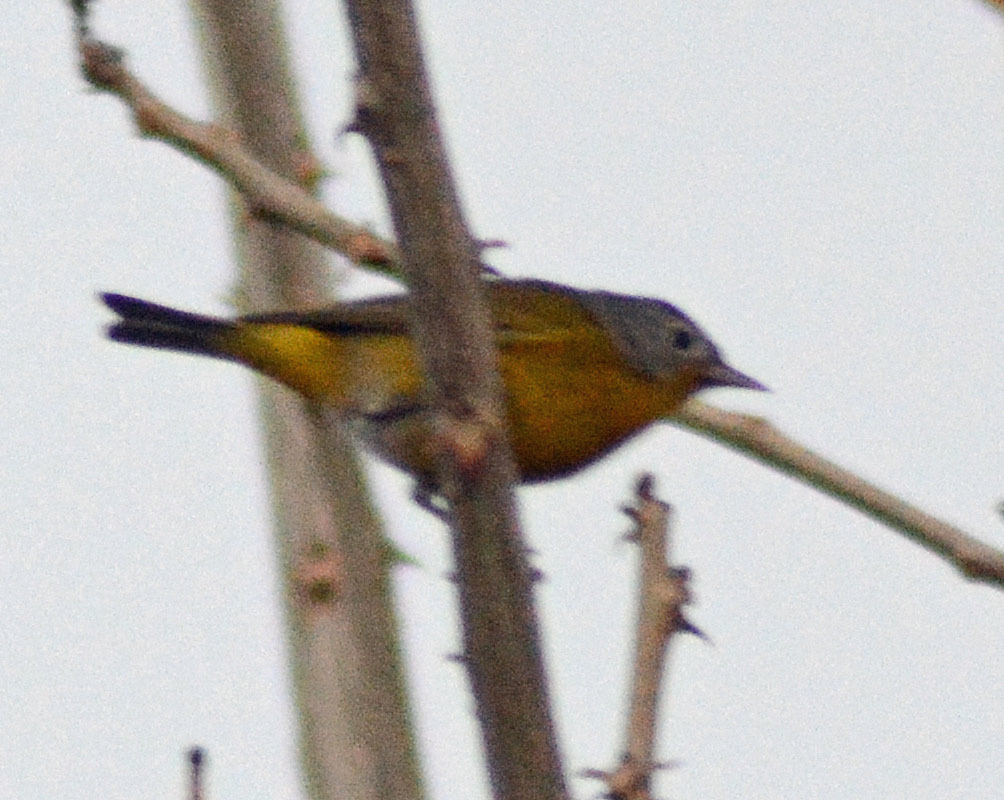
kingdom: Animalia
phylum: Chordata
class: Aves
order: Passeriformes
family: Parulidae
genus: Leiothlypis
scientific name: Leiothlypis ruficapilla
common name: Nashville warbler
